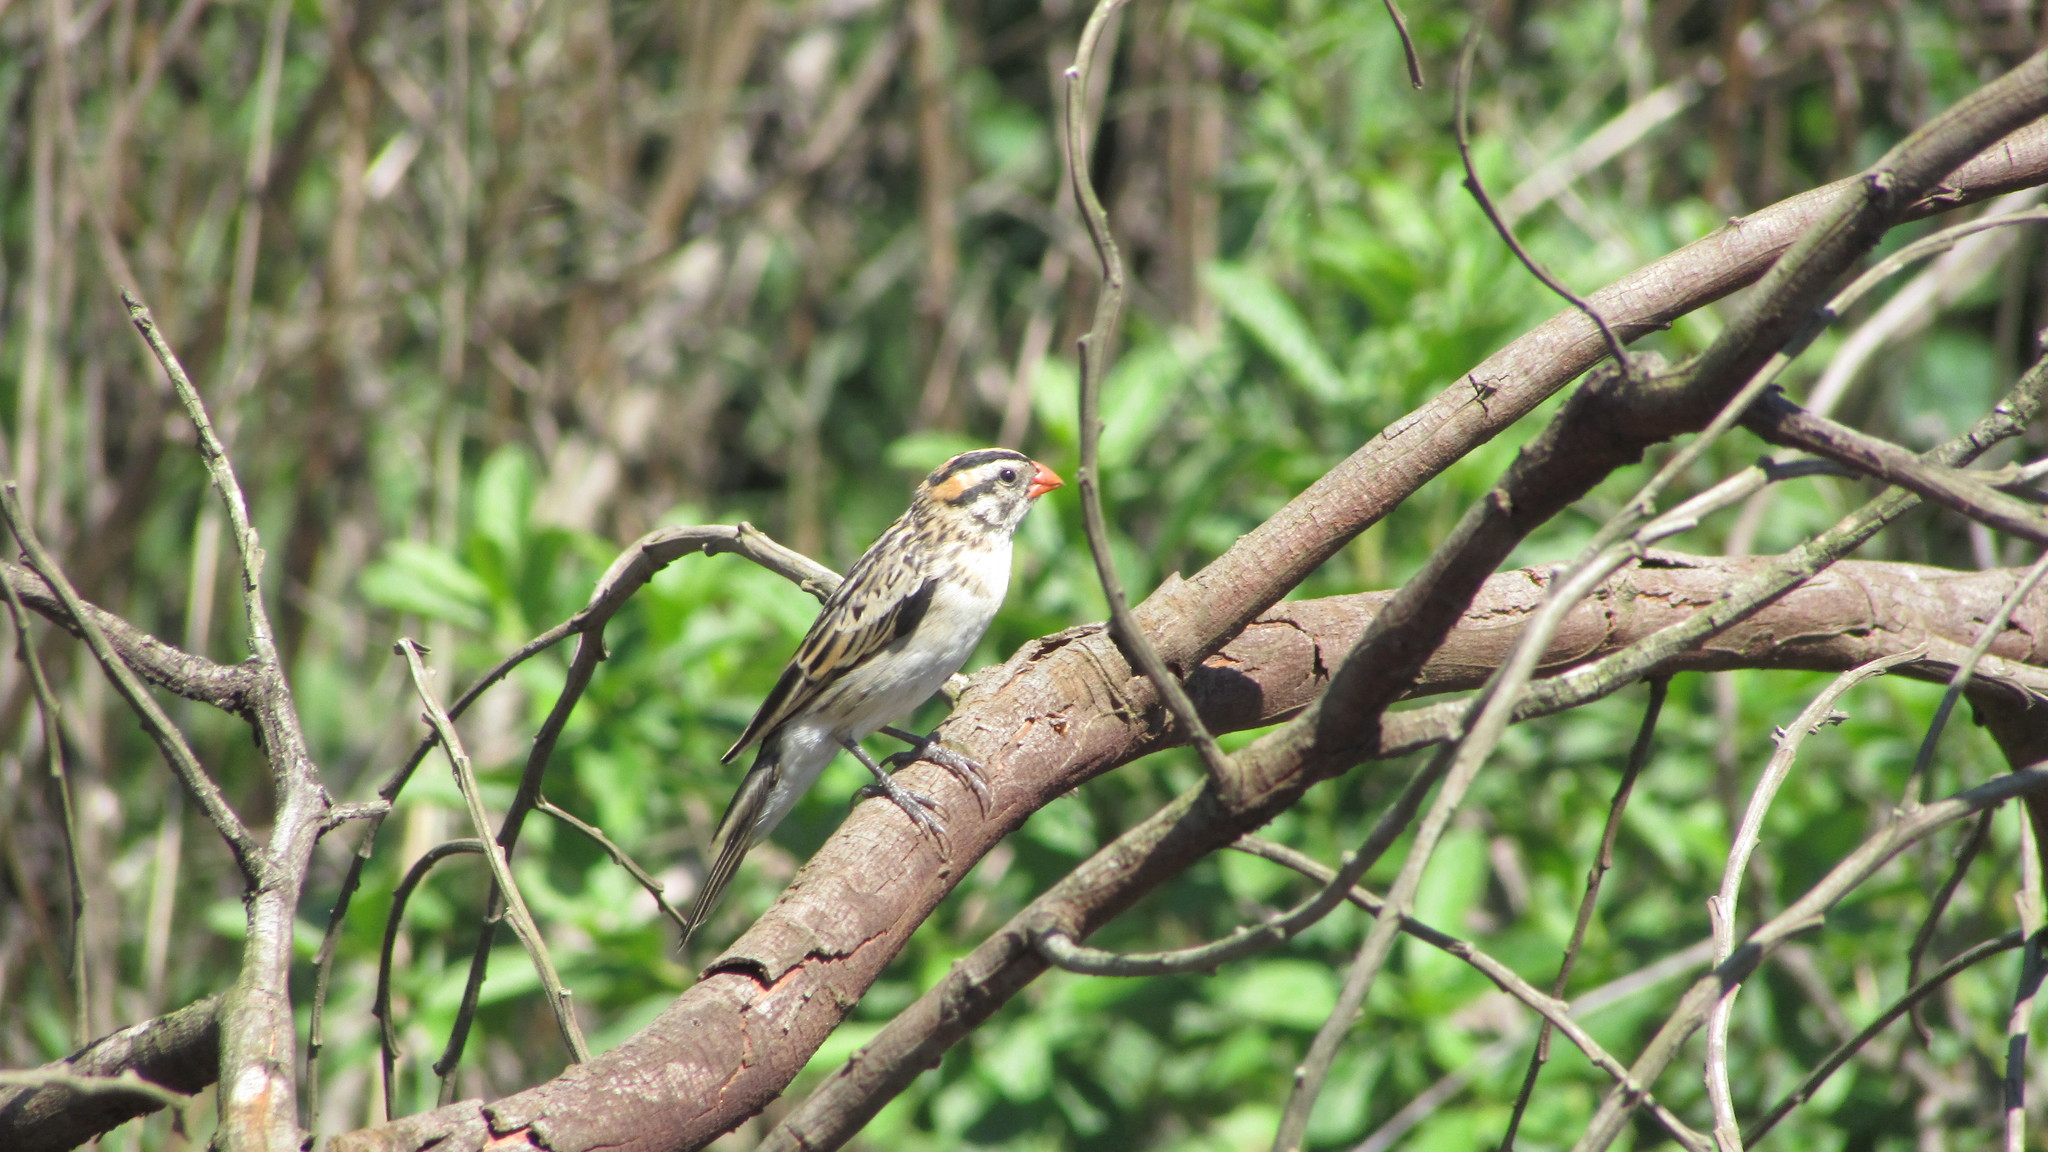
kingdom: Animalia
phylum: Chordata
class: Aves
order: Passeriformes
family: Viduidae
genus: Vidua
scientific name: Vidua macroura
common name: Pin-tailed whydah
